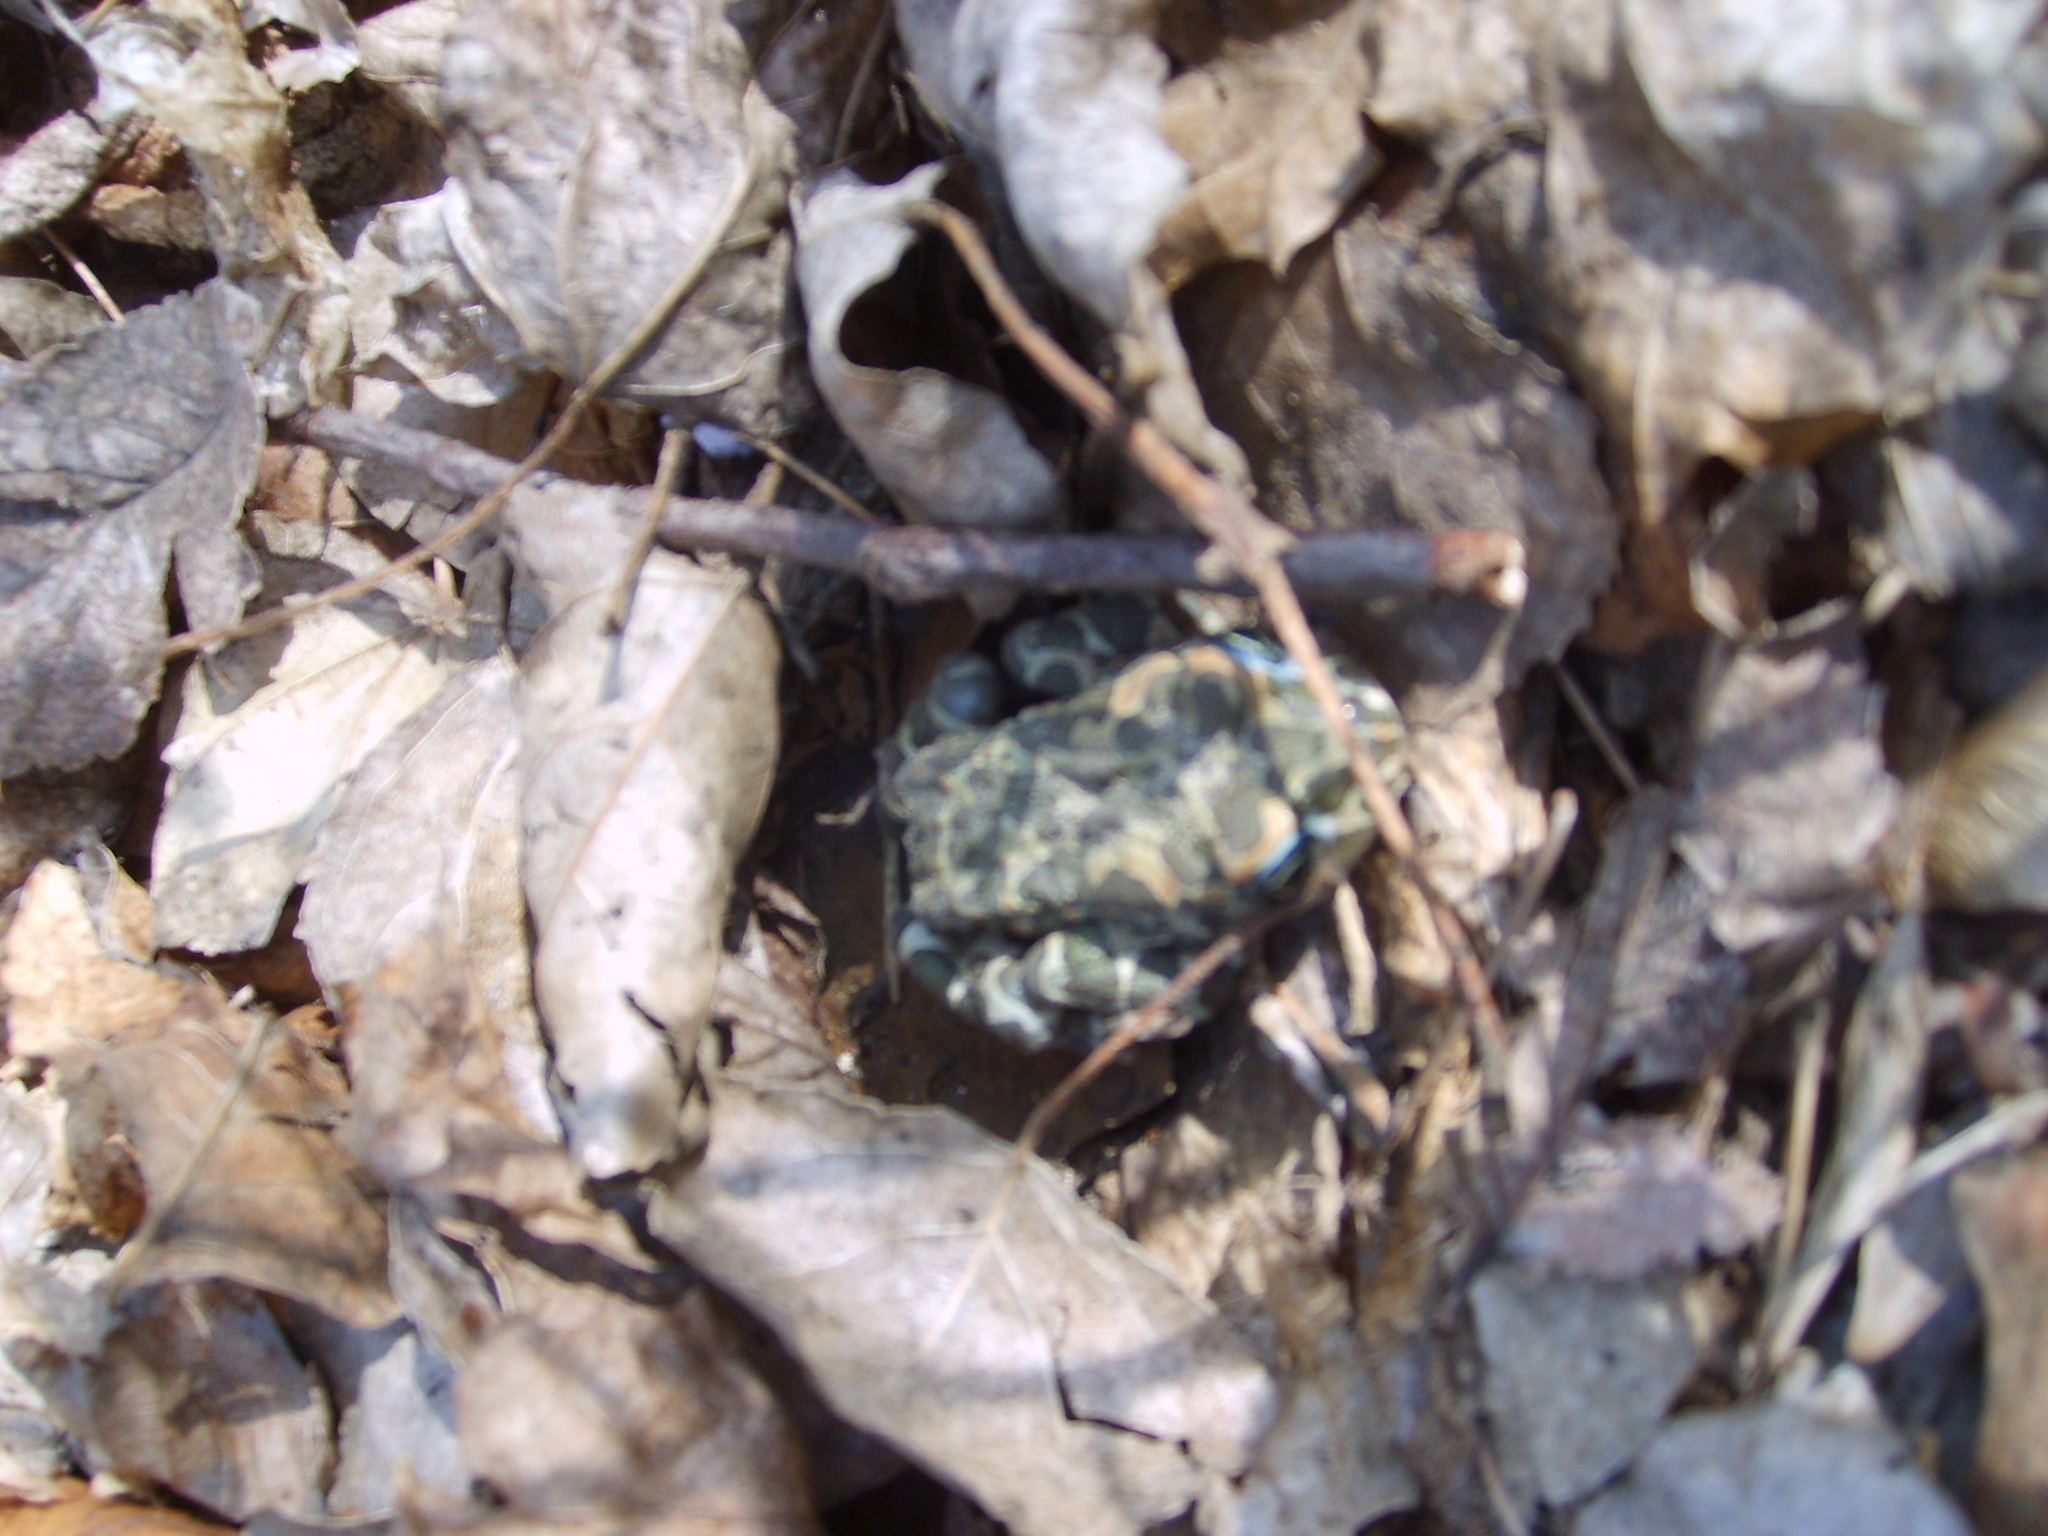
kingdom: Animalia
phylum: Chordata
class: Amphibia
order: Anura
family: Bufonidae
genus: Bufotes
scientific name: Bufotes viridis
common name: European green toad
